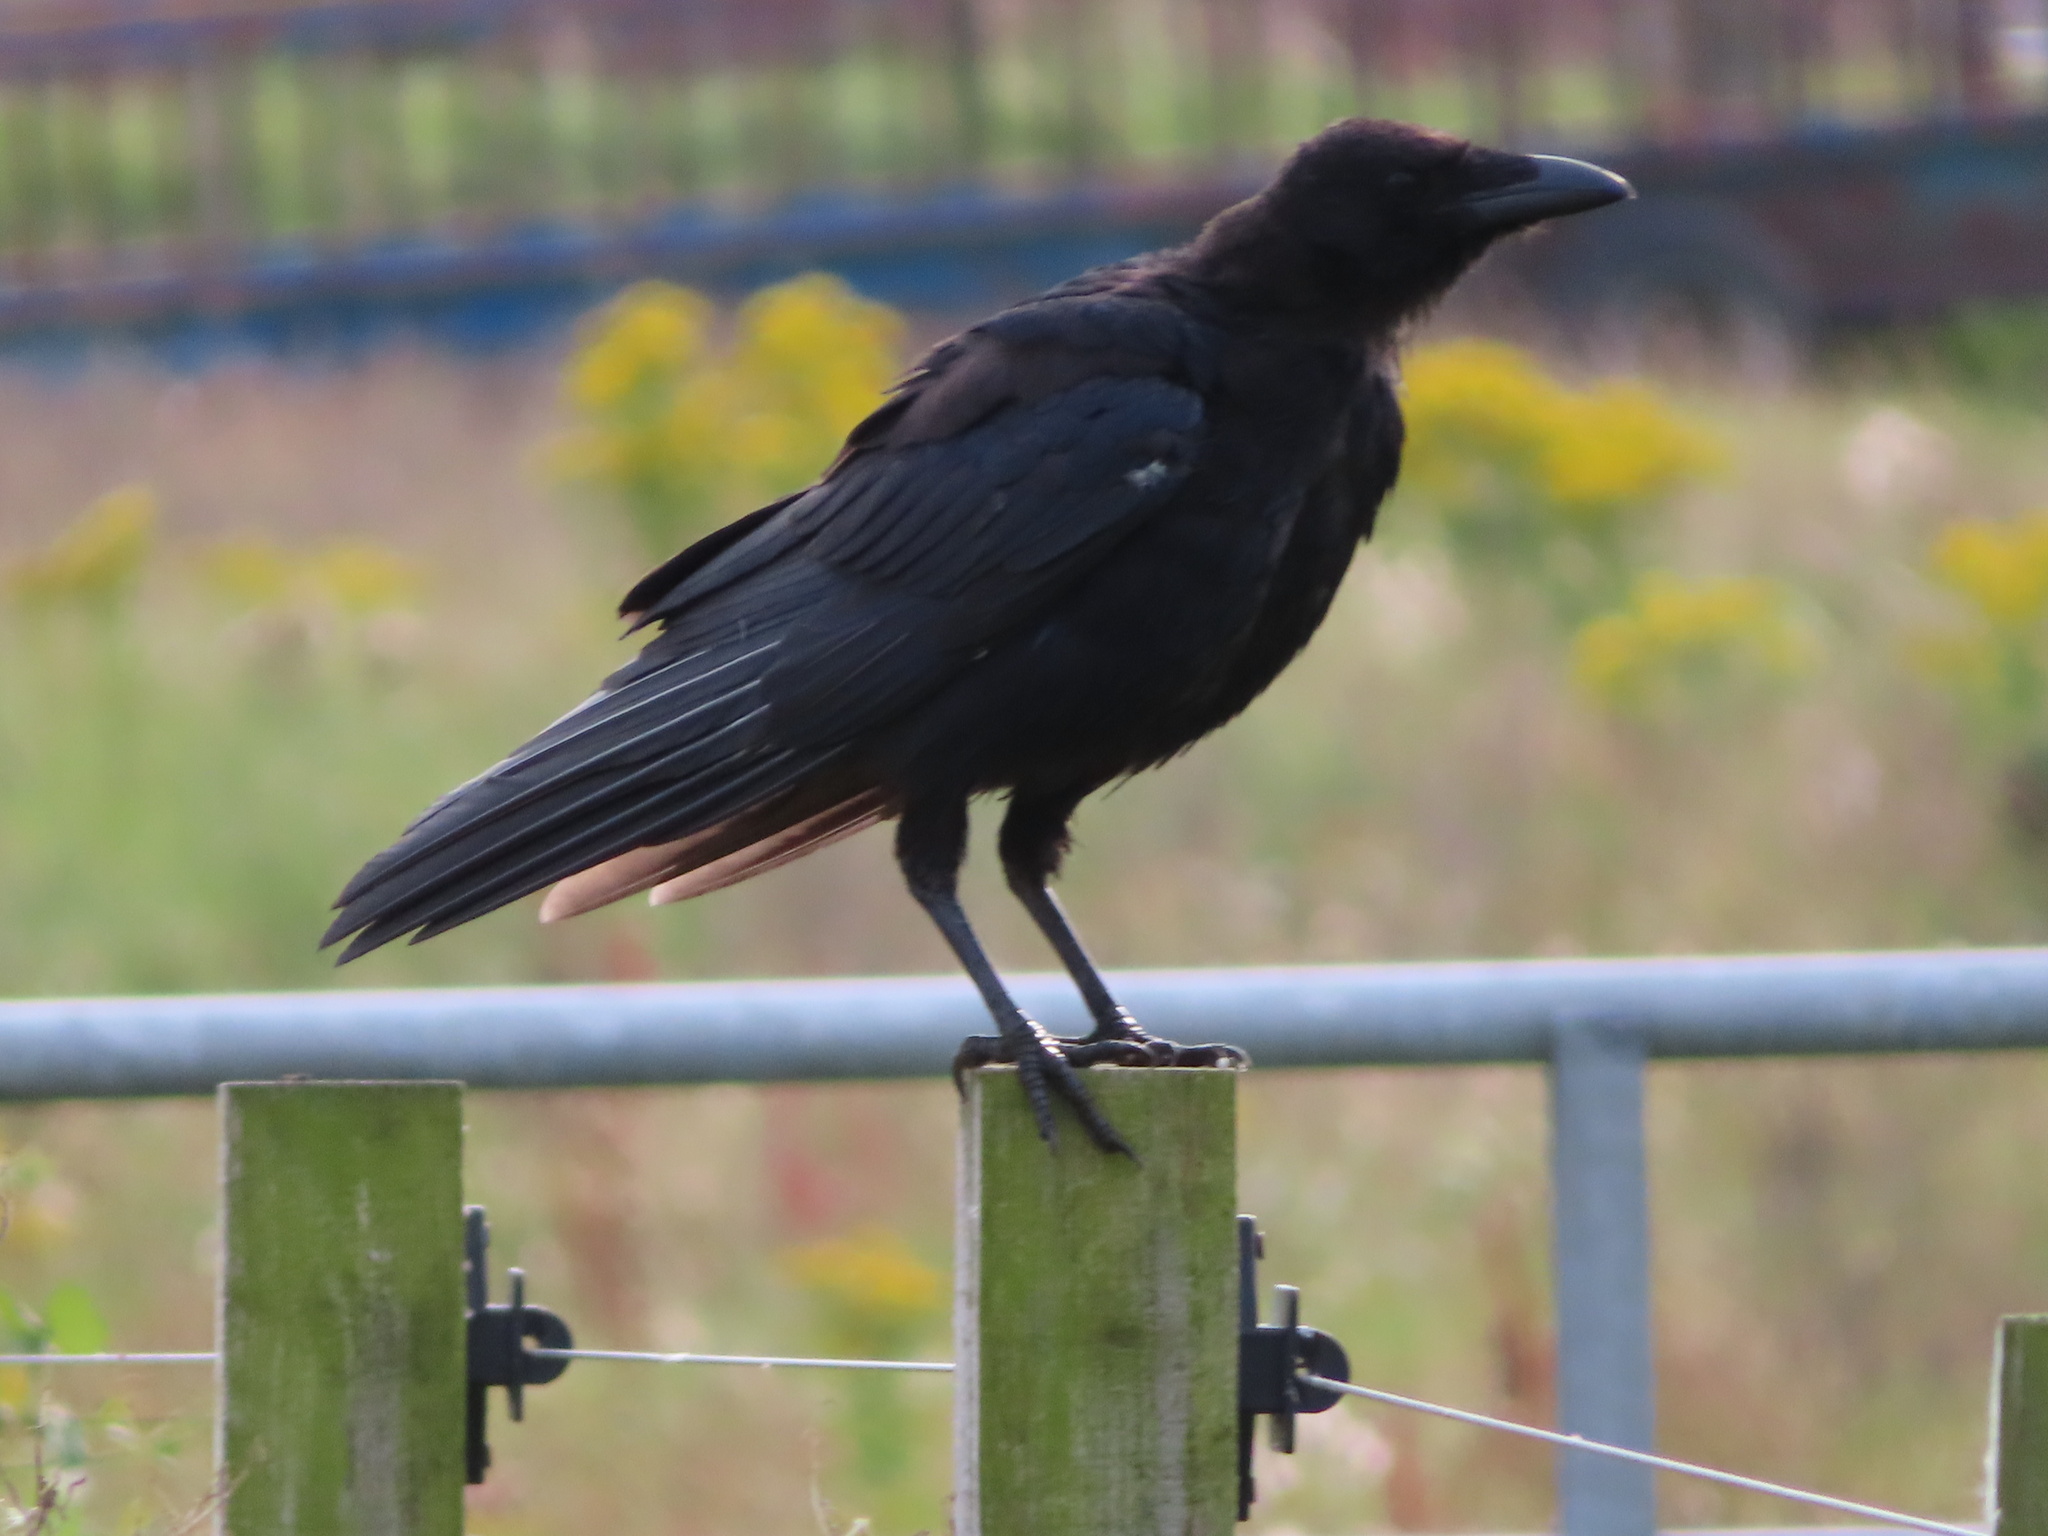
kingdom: Animalia
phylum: Chordata
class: Aves
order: Passeriformes
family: Corvidae
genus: Corvus
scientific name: Corvus corone
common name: Carrion crow
